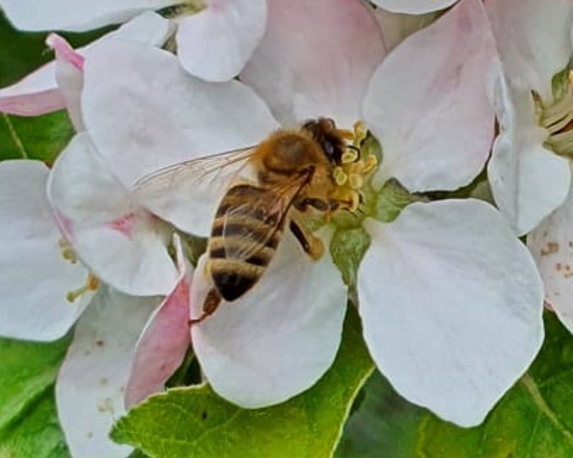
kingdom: Animalia
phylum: Arthropoda
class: Insecta
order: Hymenoptera
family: Apidae
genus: Apis
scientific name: Apis mellifera
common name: Honey bee
